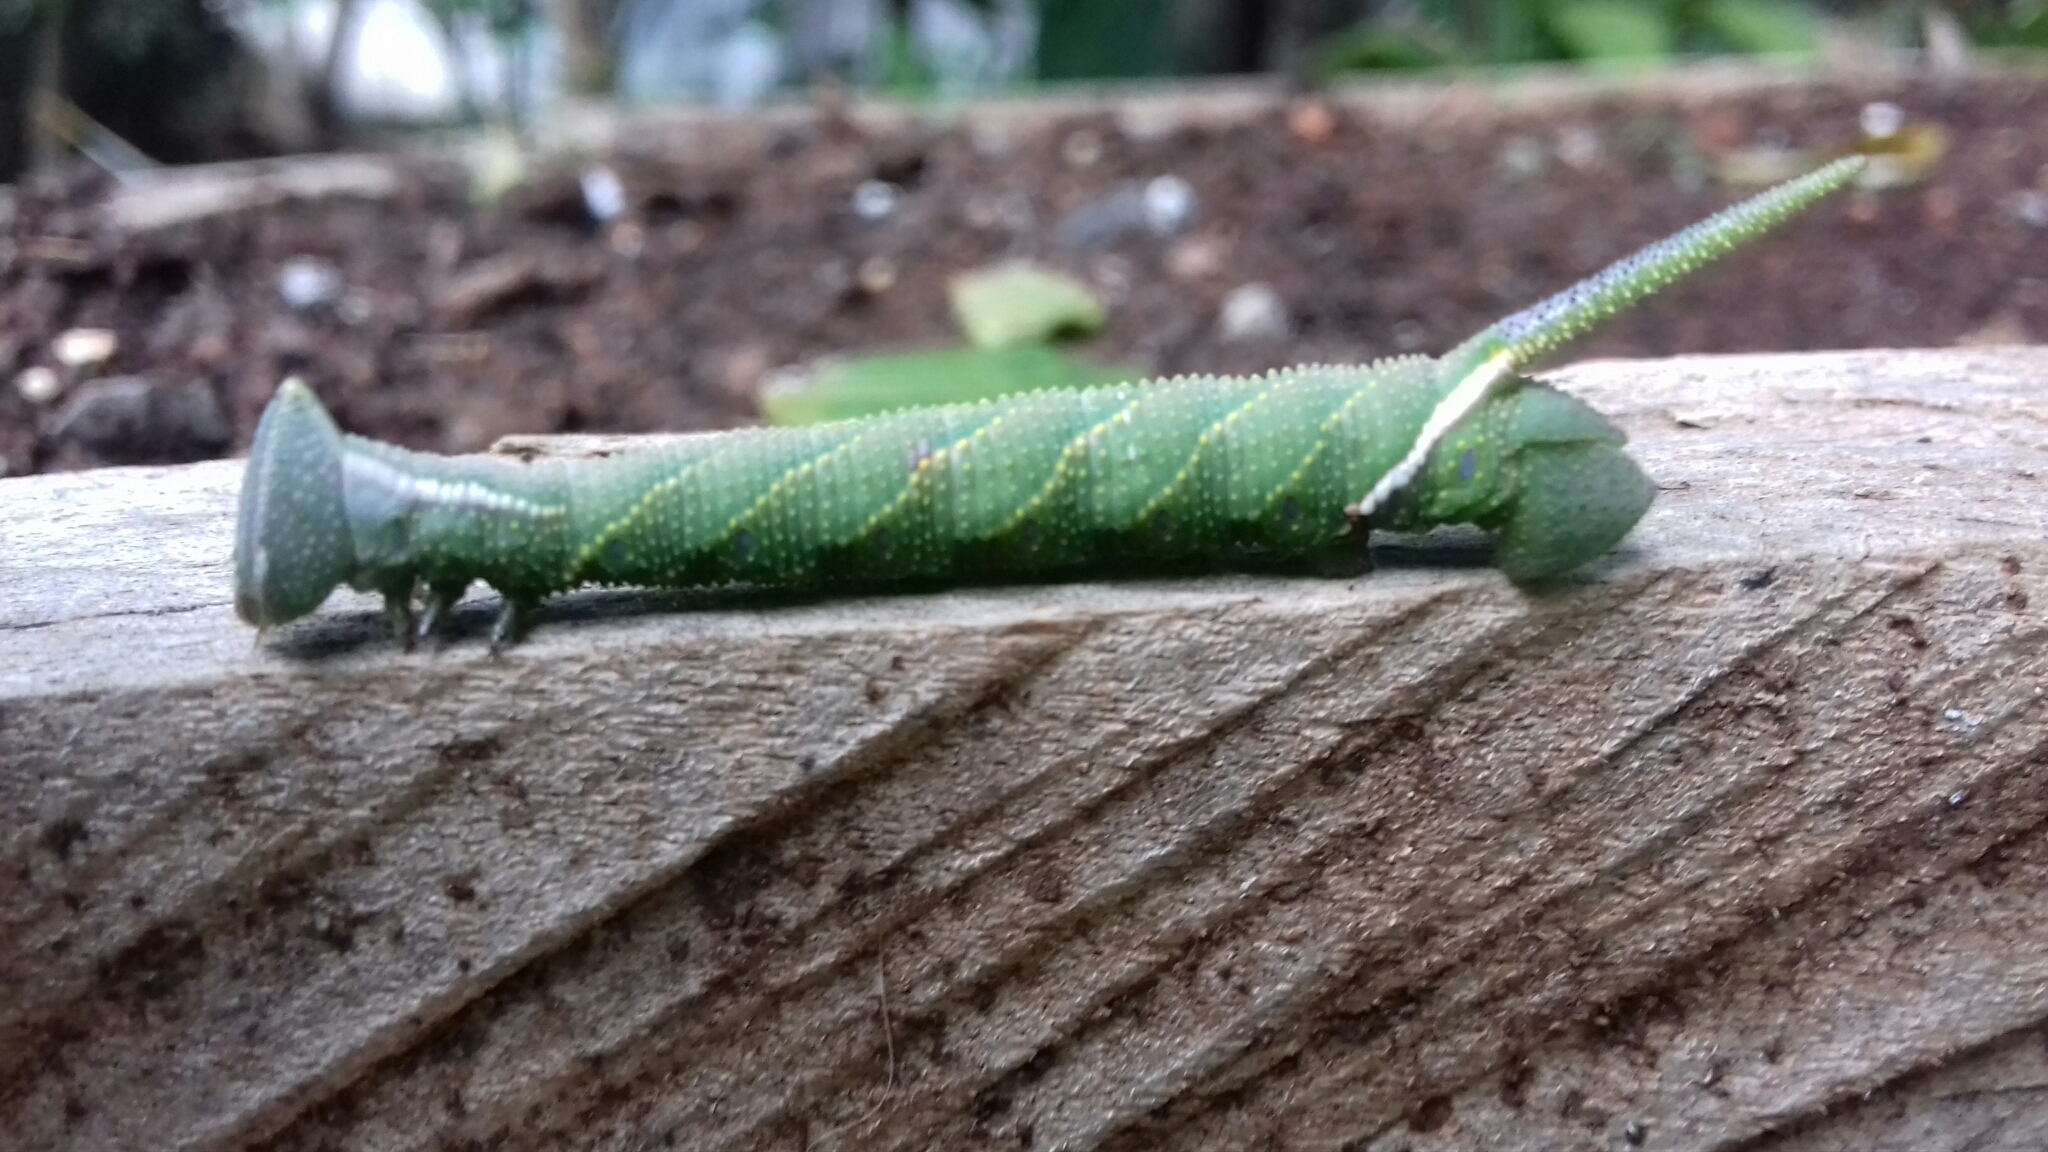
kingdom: Animalia
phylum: Arthropoda
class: Insecta
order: Lepidoptera
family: Sphingidae
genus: Protambulyx
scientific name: Protambulyx strigilis
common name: Streaked sphinx
